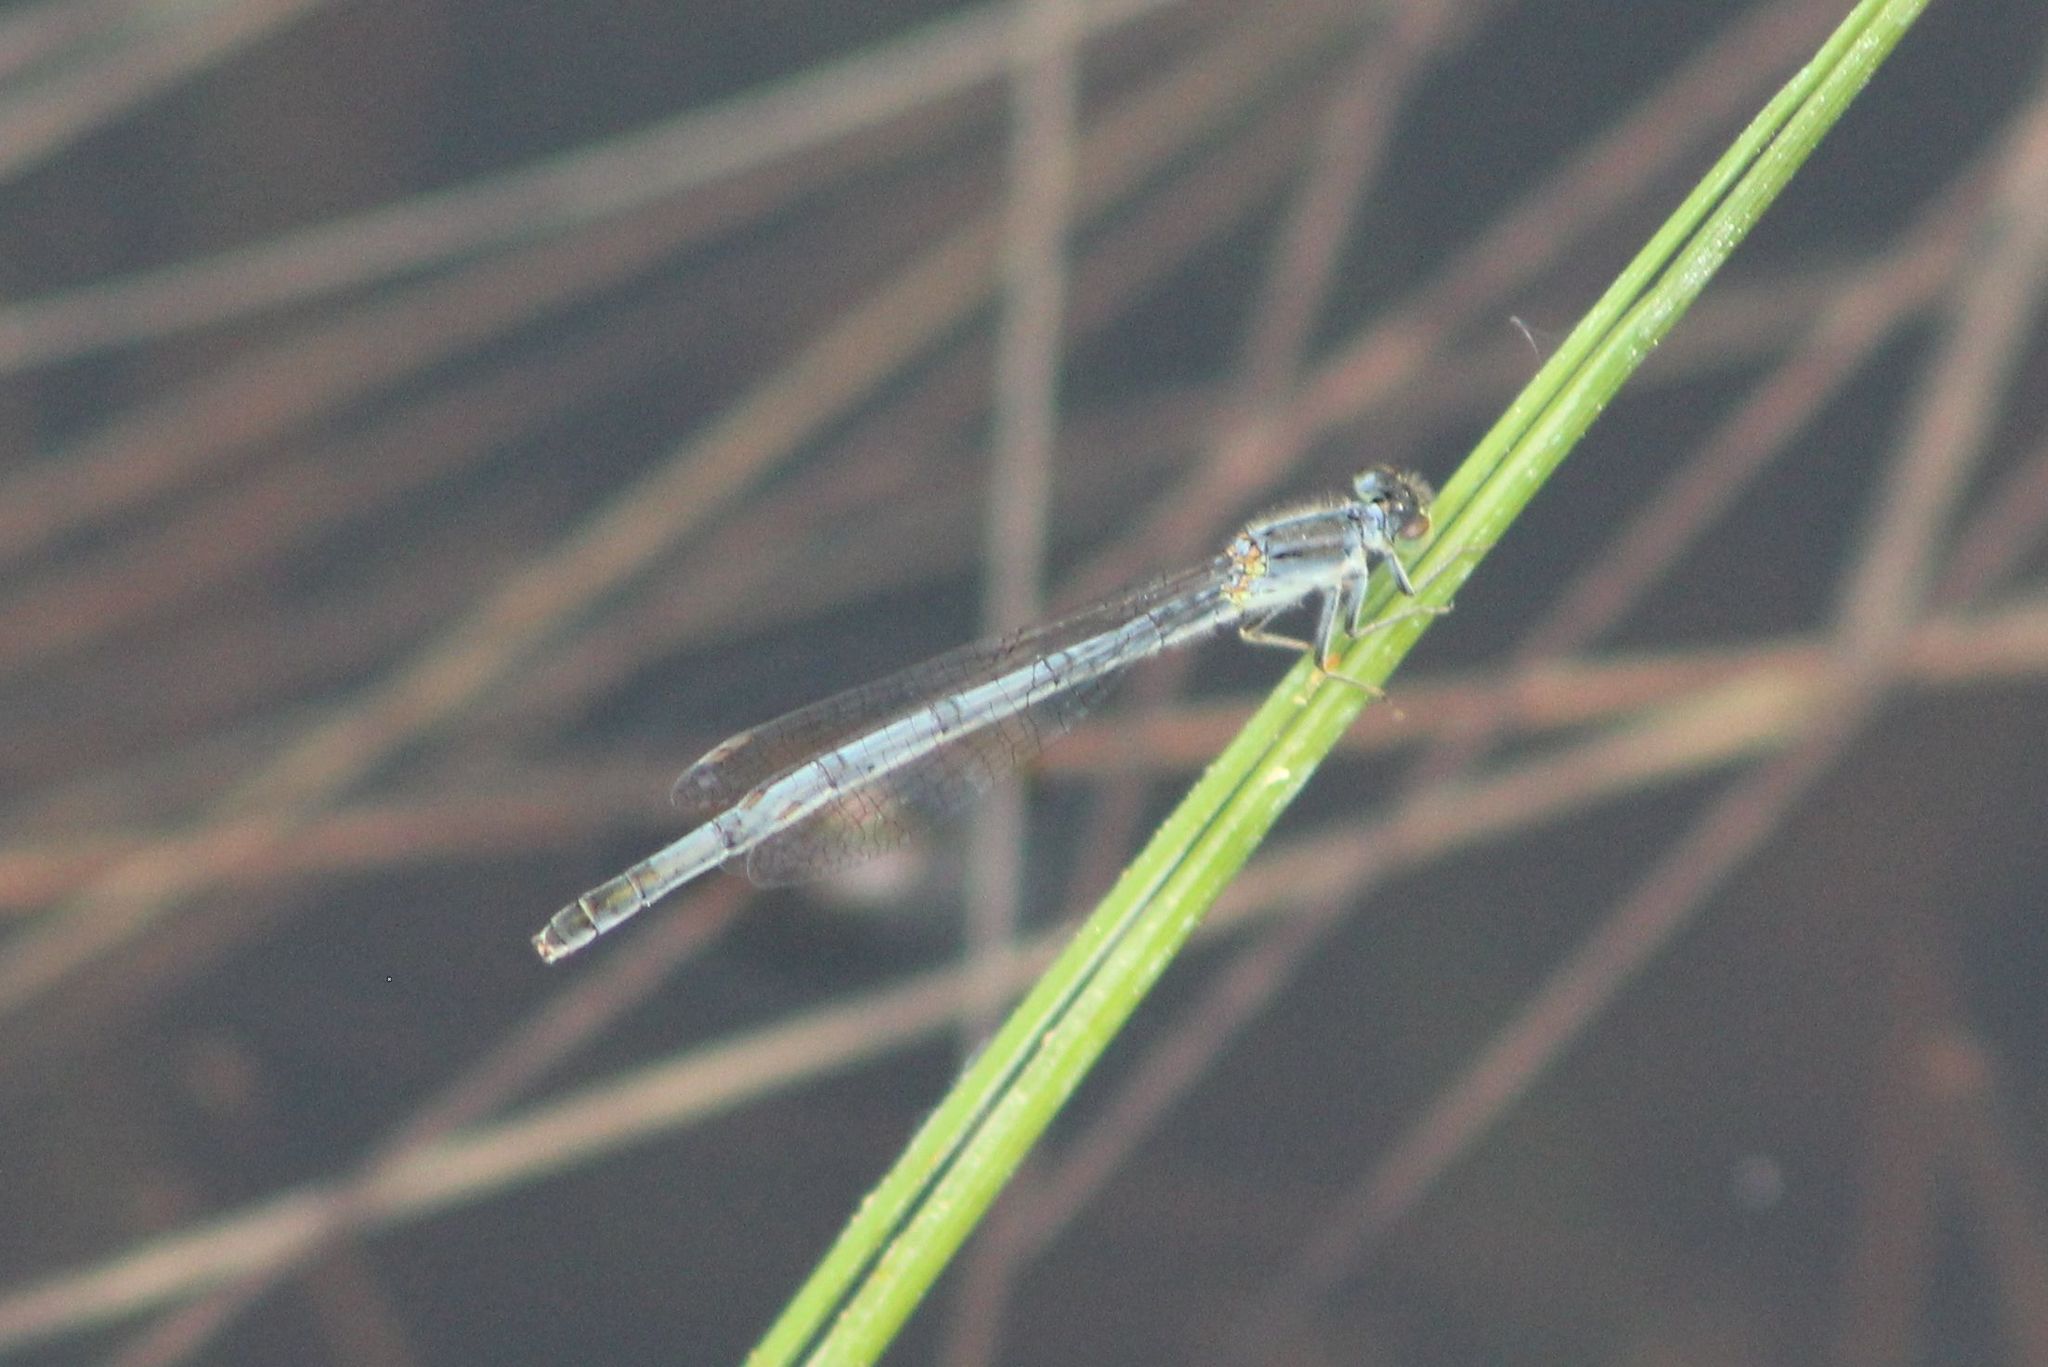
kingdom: Animalia
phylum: Arthropoda
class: Insecta
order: Odonata
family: Coenagrionidae
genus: Ischnura
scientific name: Ischnura verticalis
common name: Eastern forktail
